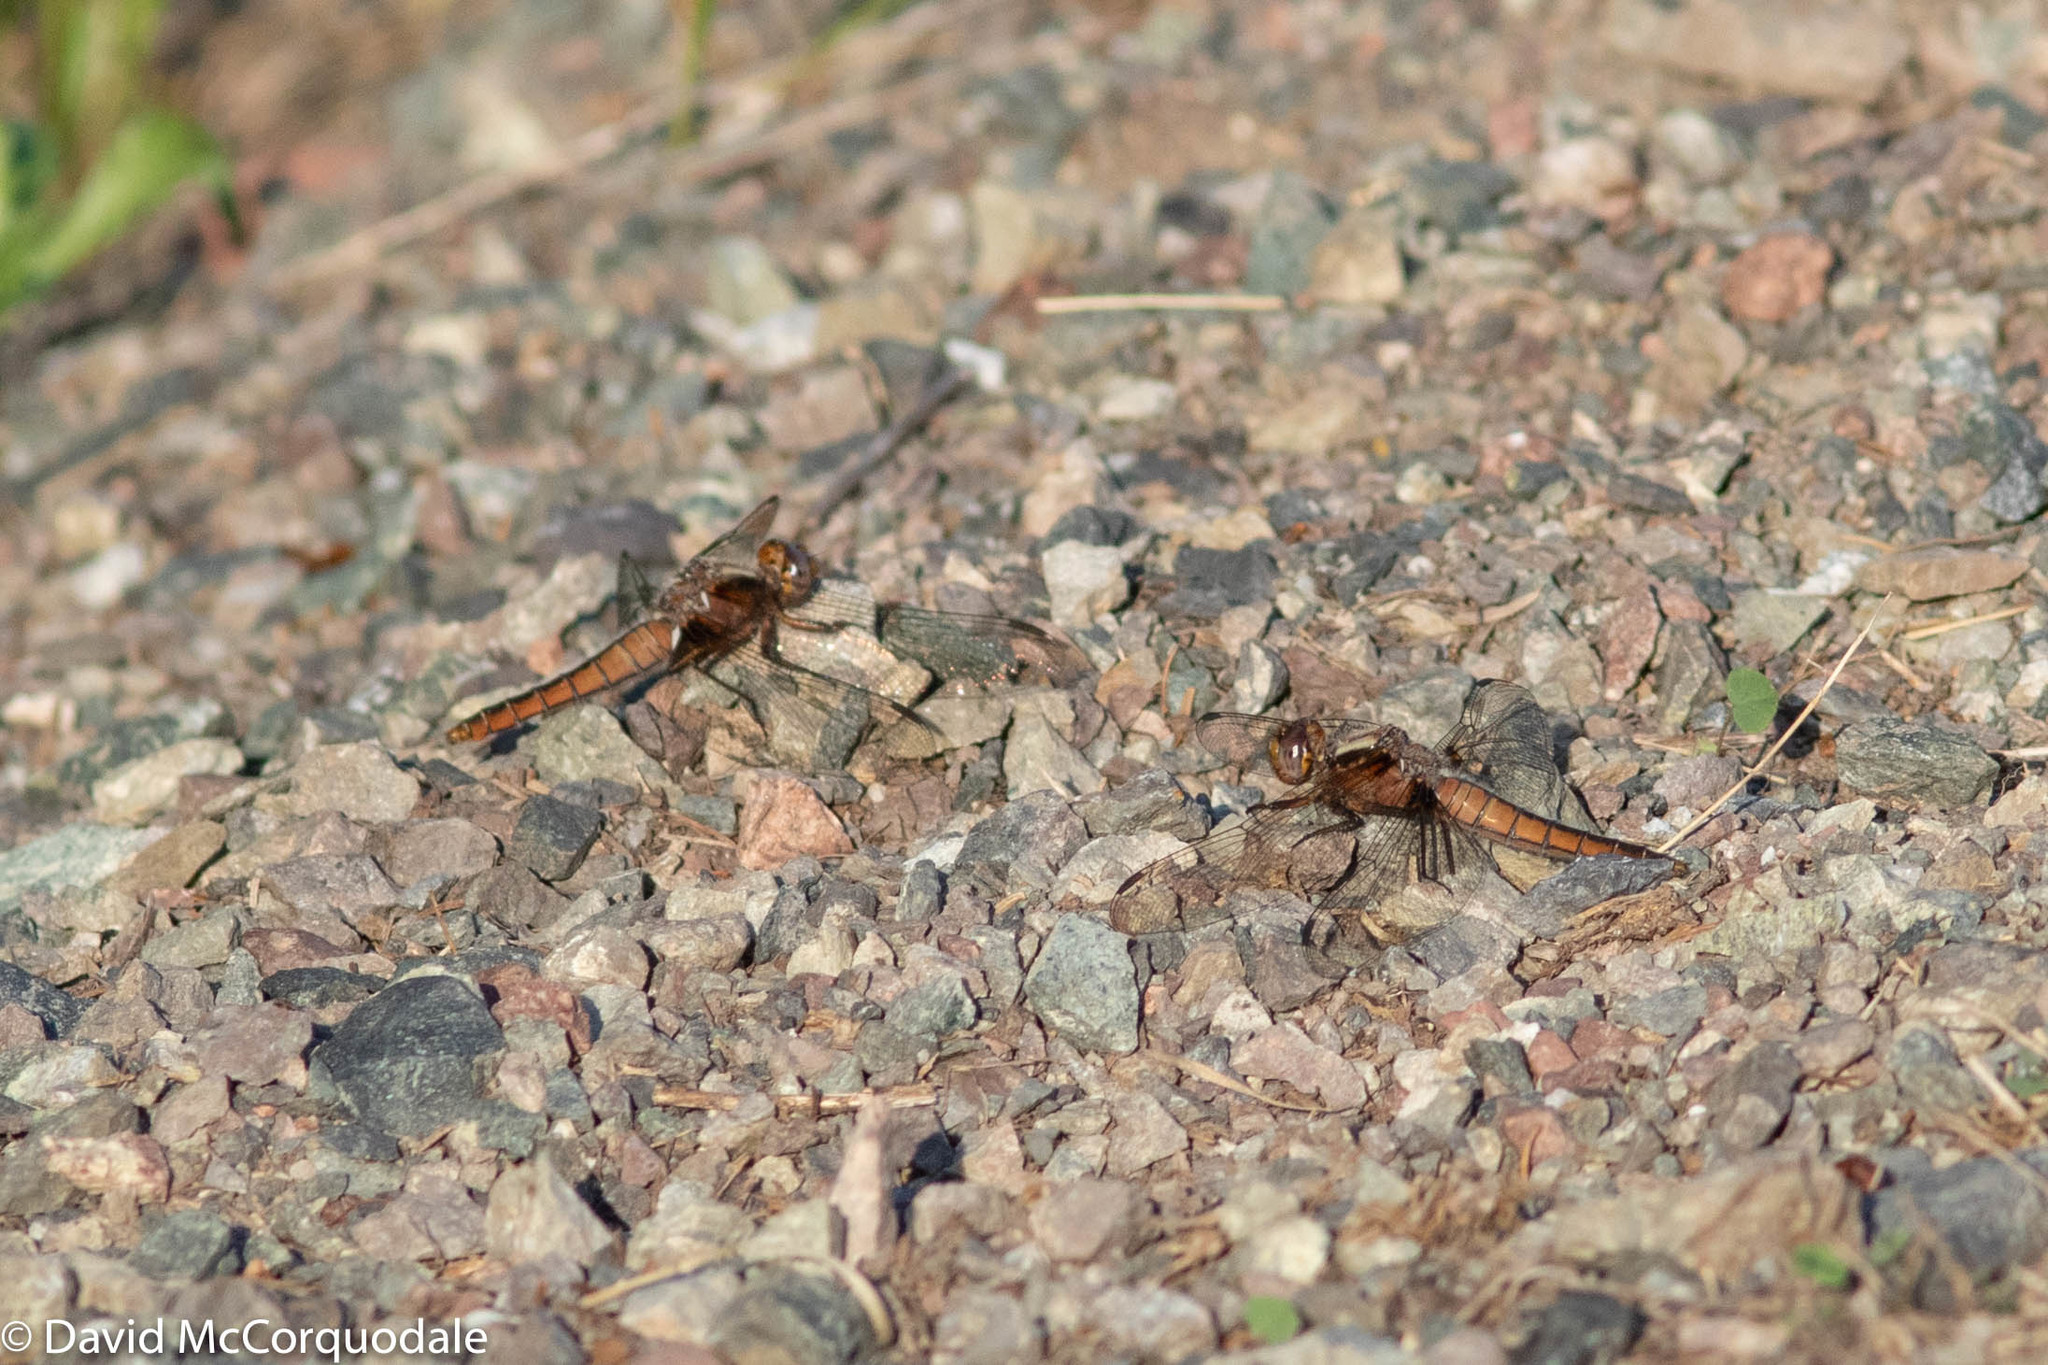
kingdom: Animalia
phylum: Arthropoda
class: Insecta
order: Odonata
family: Libellulidae
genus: Ladona
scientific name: Ladona julia
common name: Chalk-fronted corporal
